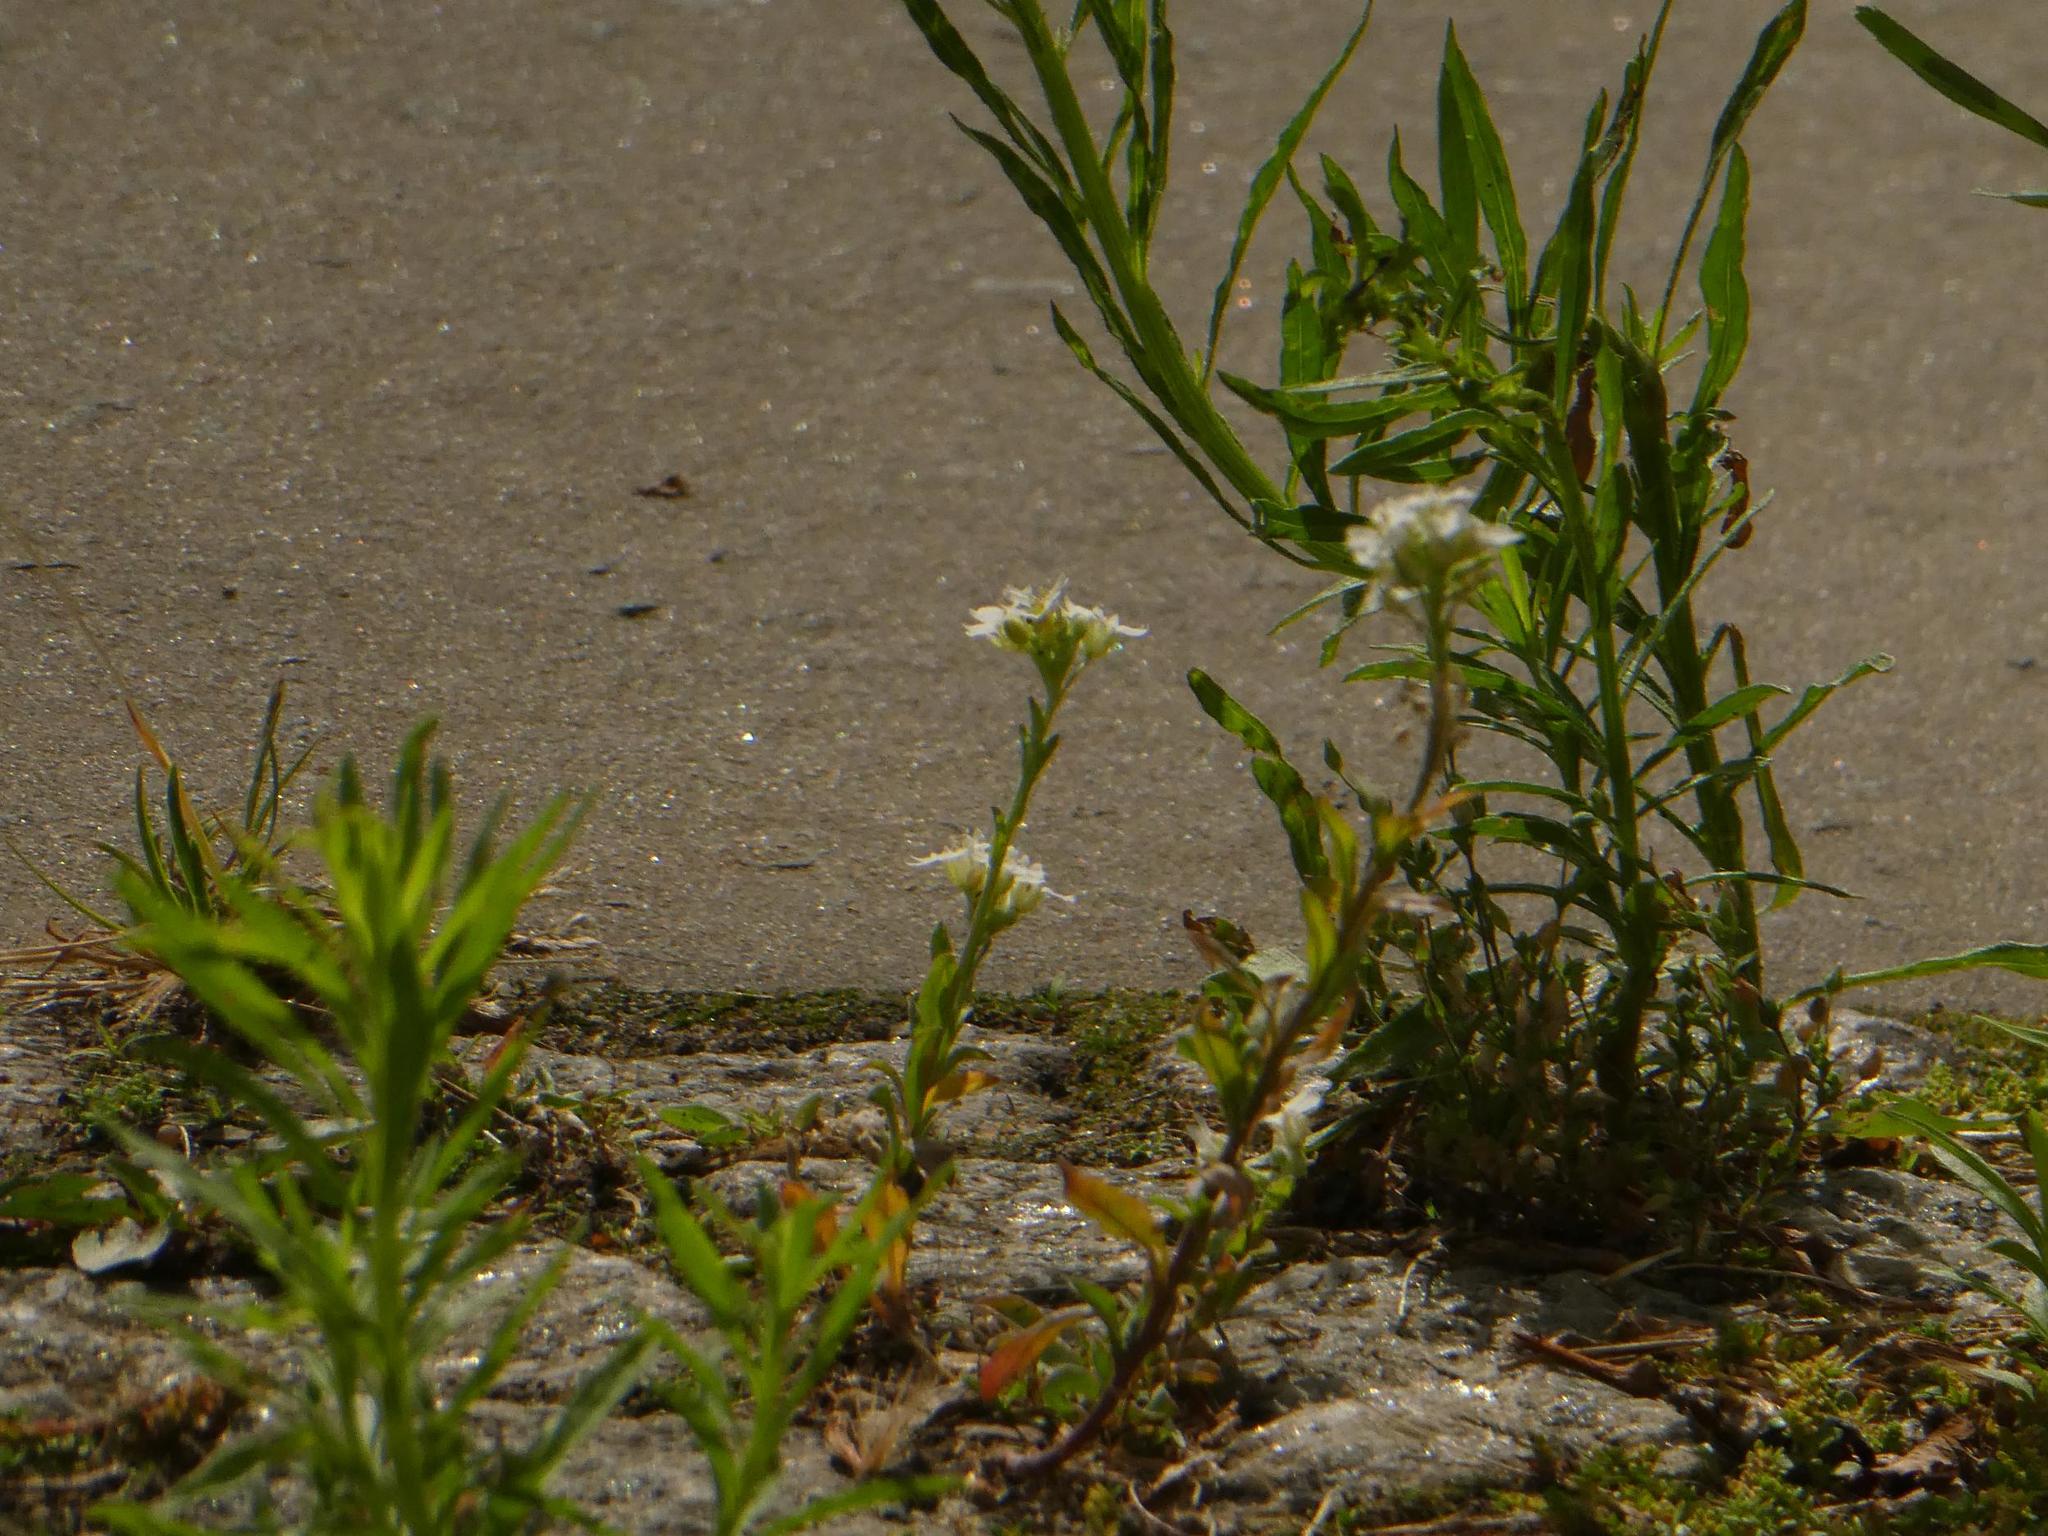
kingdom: Plantae
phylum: Tracheophyta
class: Magnoliopsida
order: Brassicales
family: Brassicaceae
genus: Berteroa
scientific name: Berteroa incana
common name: Hoary alison
